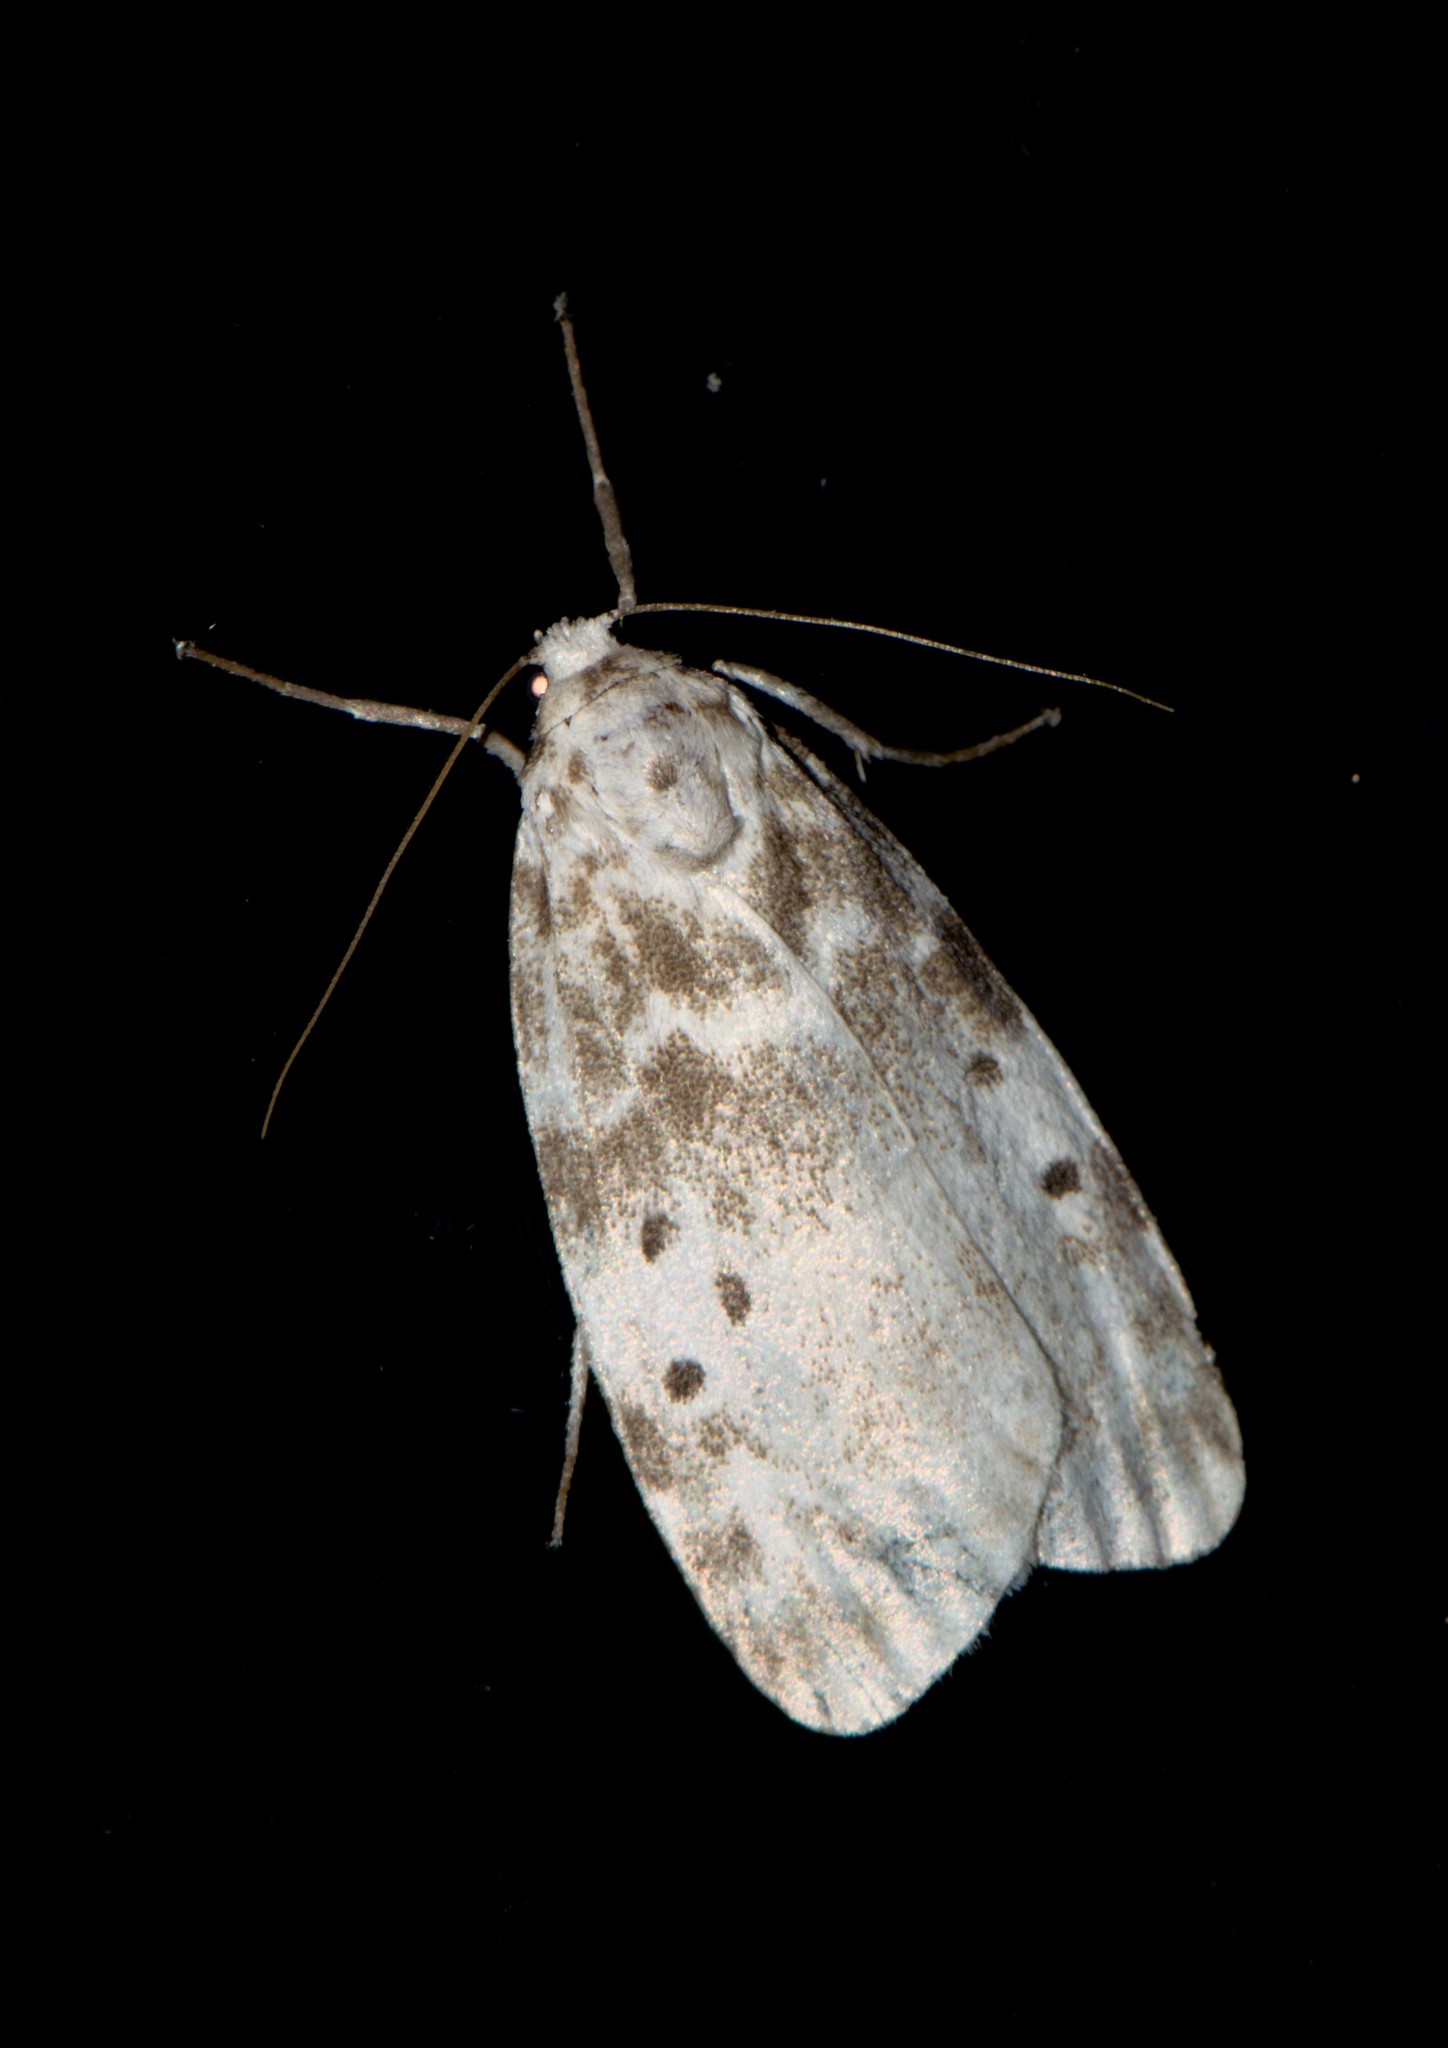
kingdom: Animalia
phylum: Arthropoda
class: Insecta
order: Lepidoptera
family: Erebidae
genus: Cyana
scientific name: Cyana detrita
